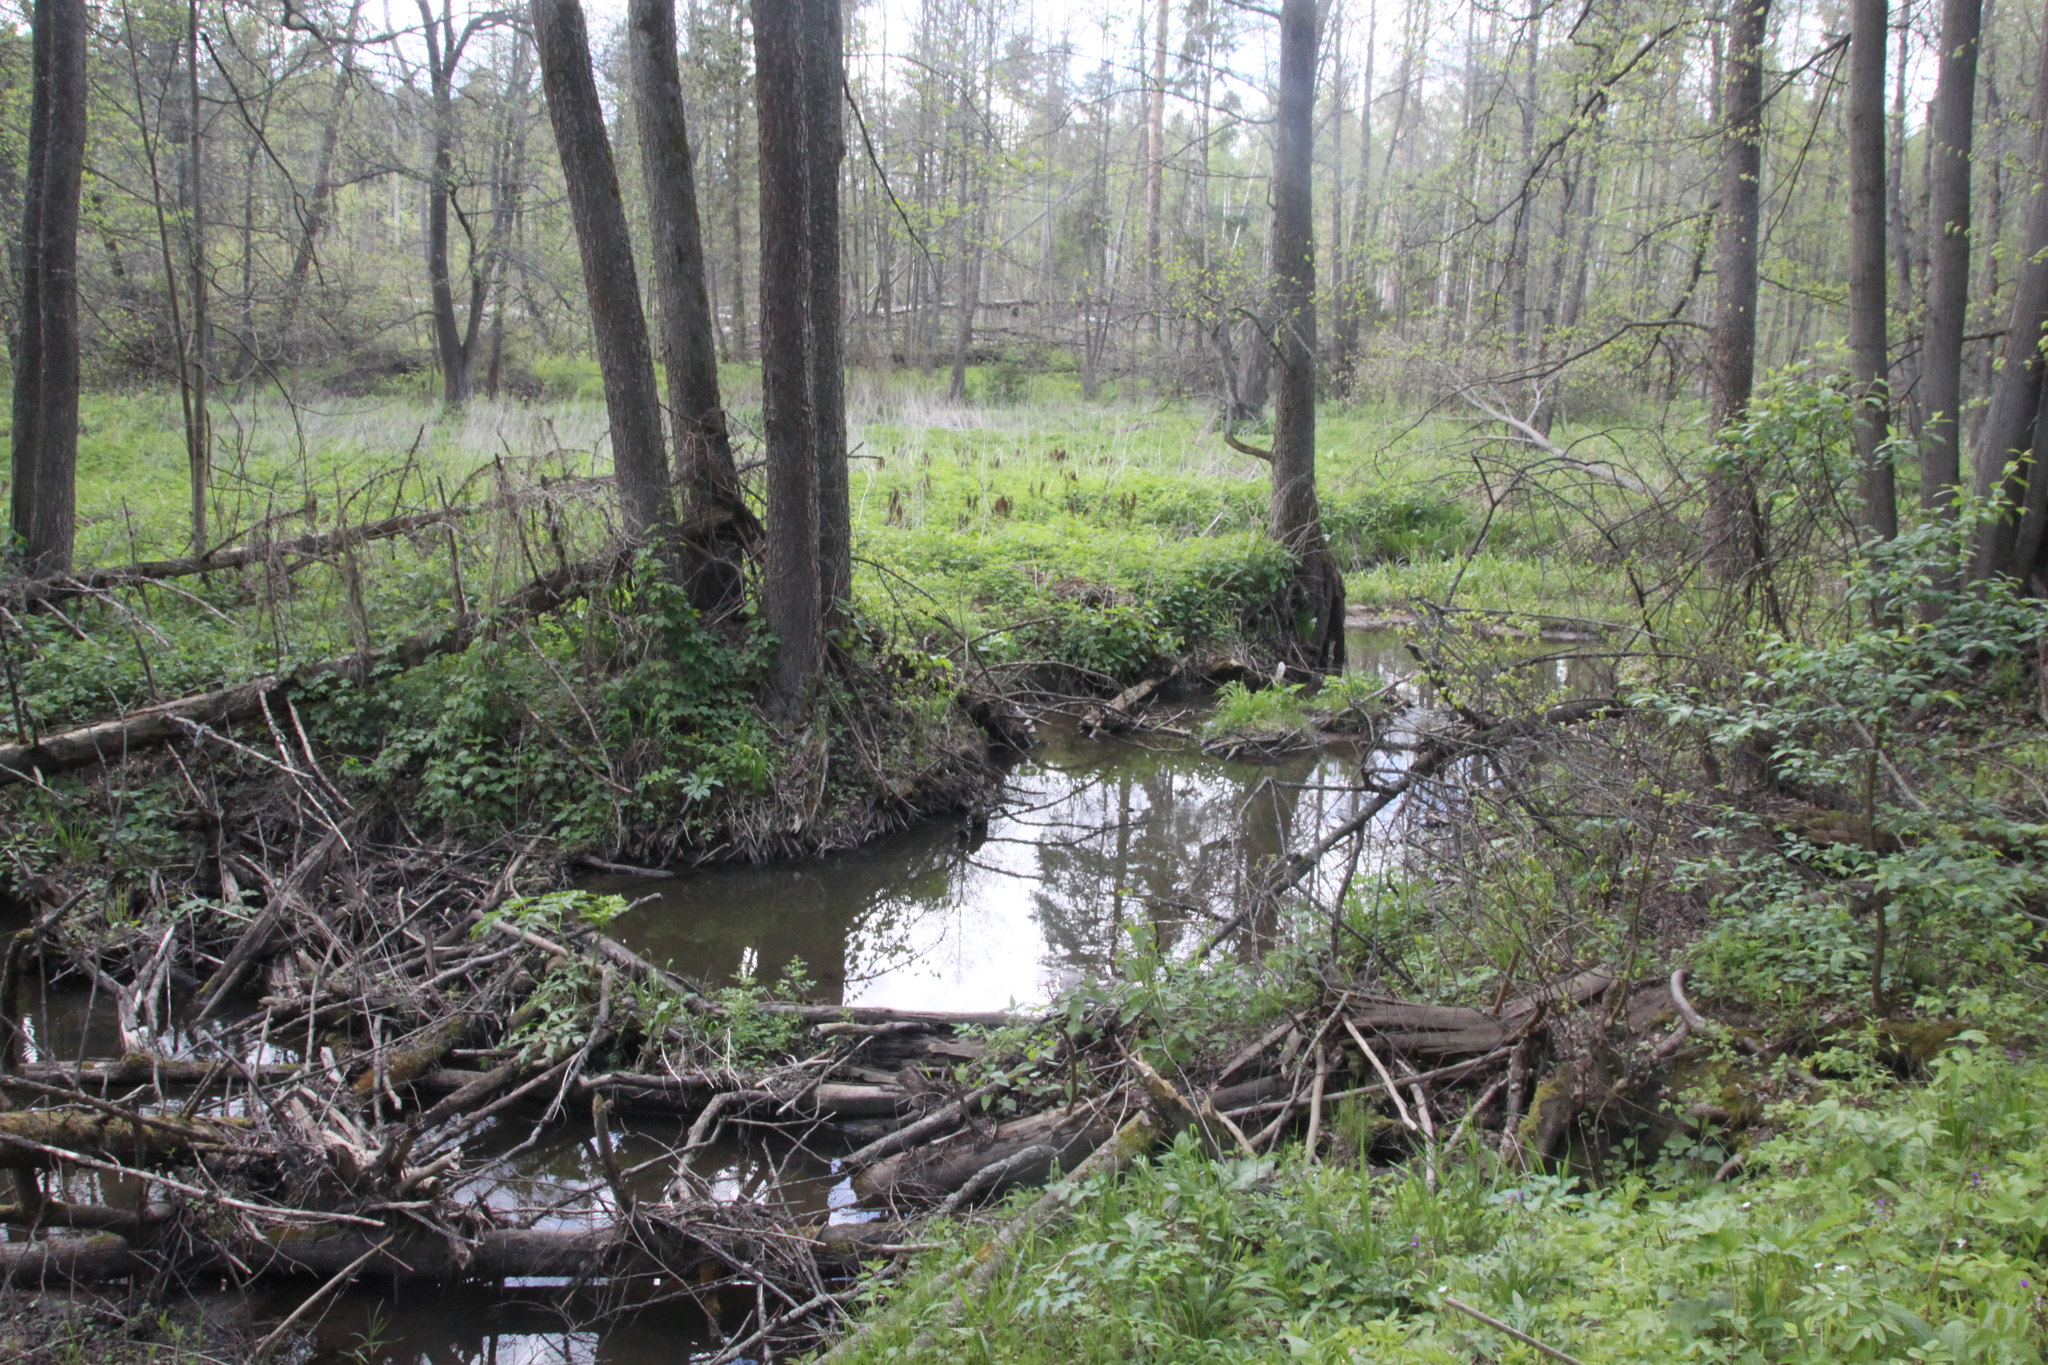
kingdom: Animalia
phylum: Chordata
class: Mammalia
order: Rodentia
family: Castoridae
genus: Castor
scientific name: Castor fiber
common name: Eurasian beaver
